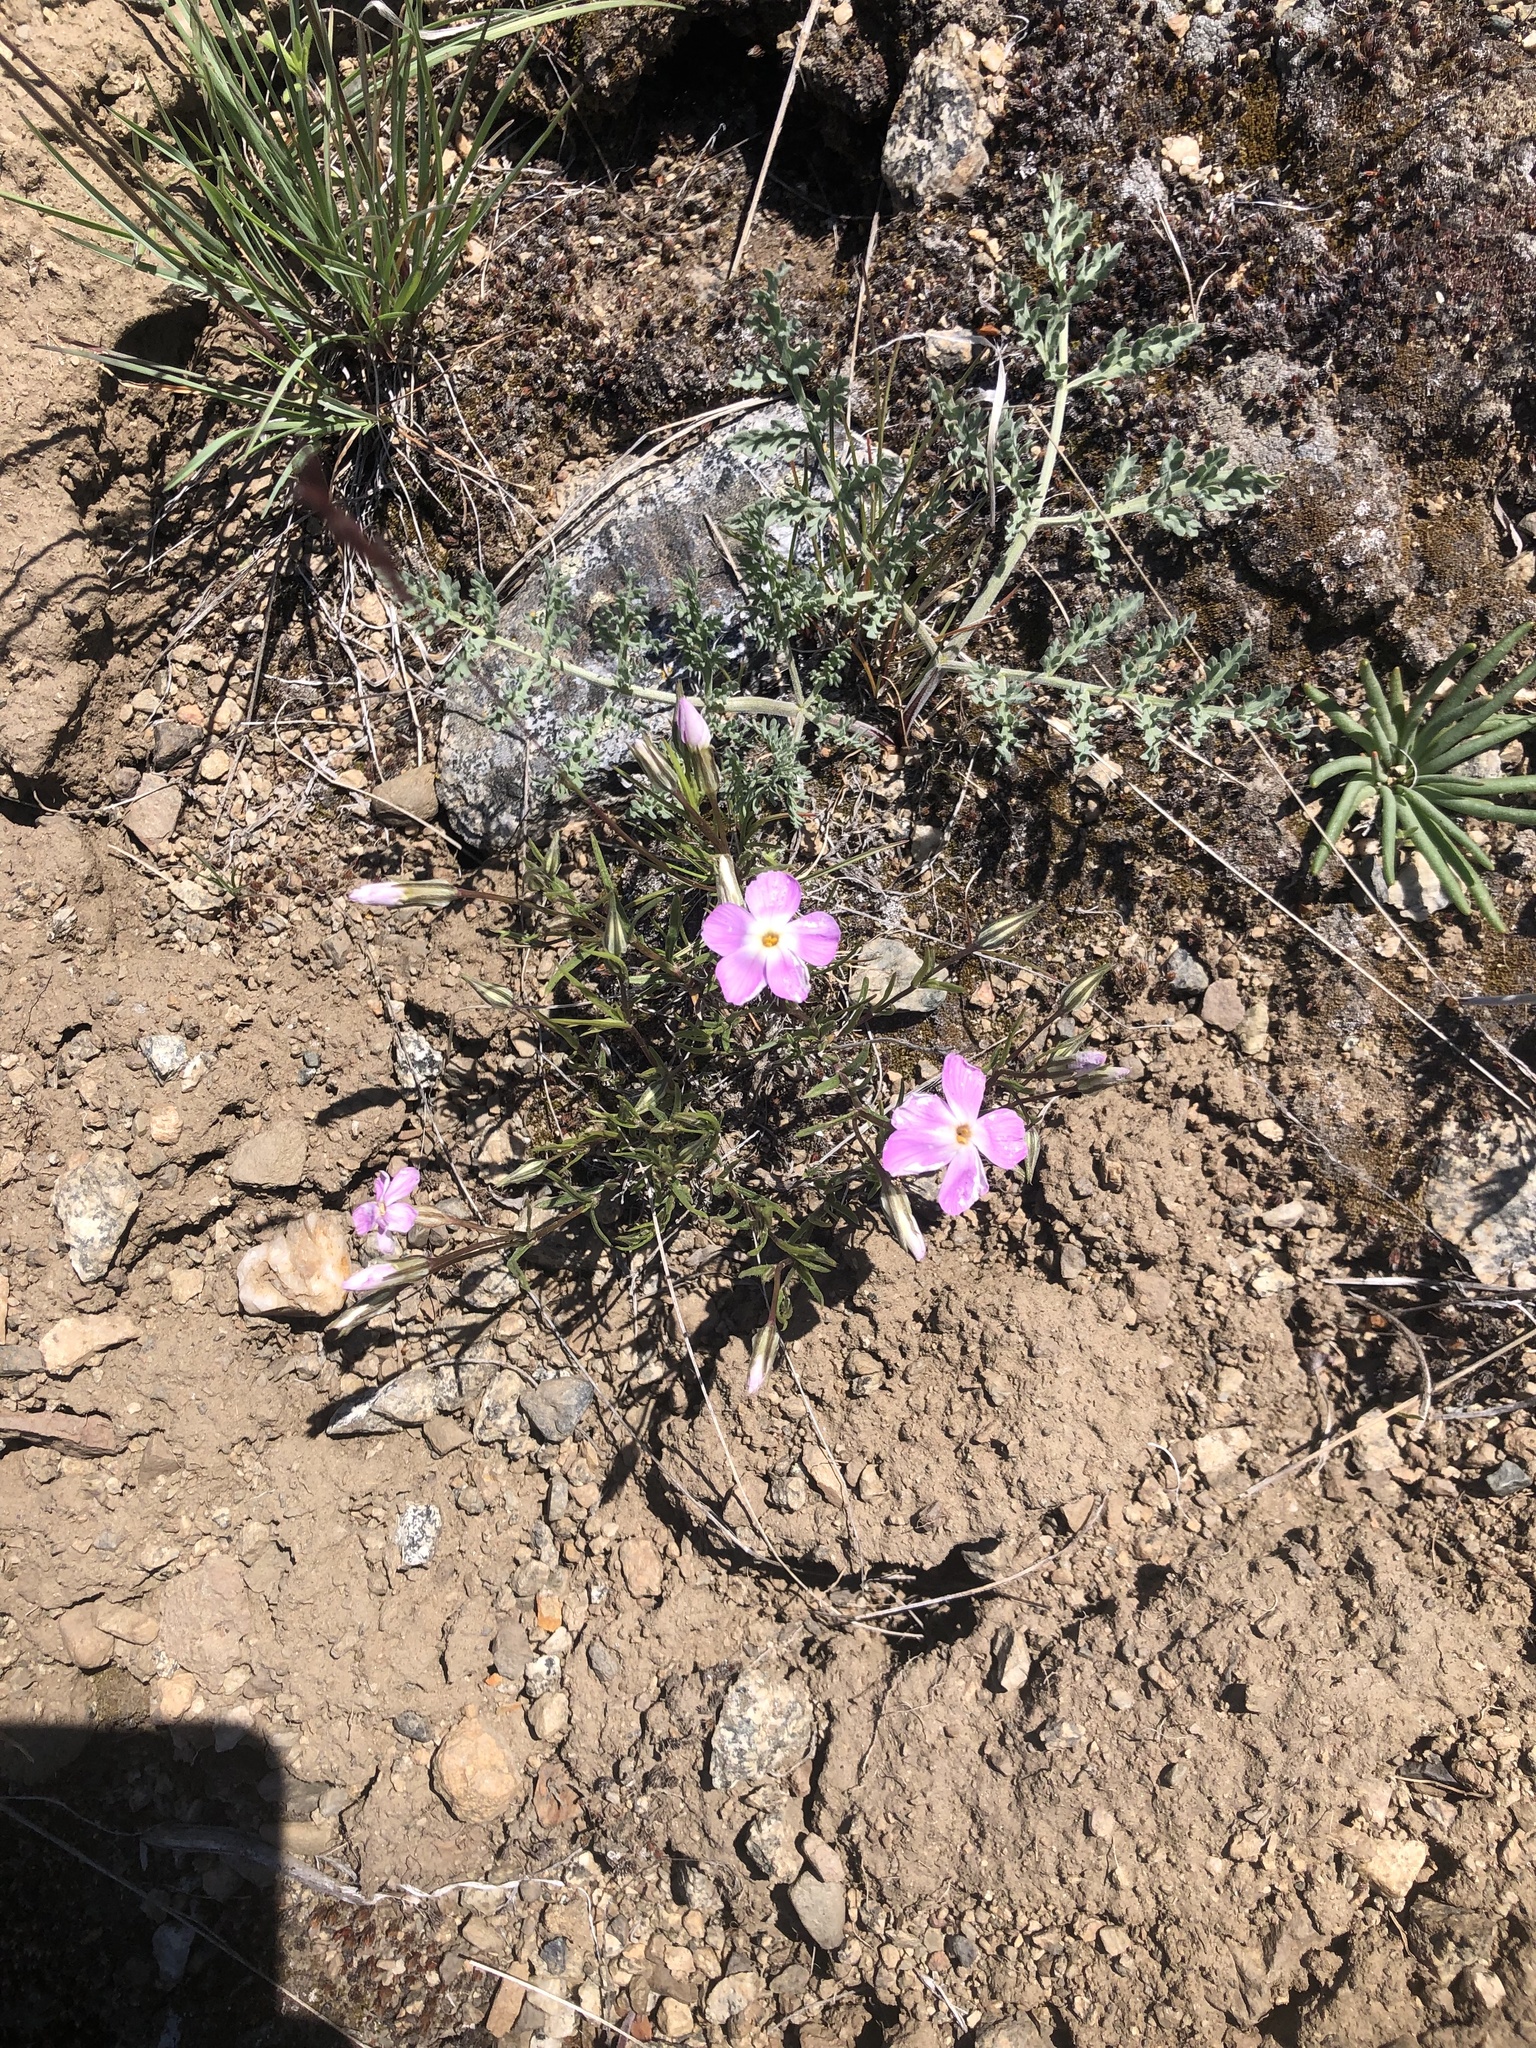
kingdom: Plantae
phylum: Tracheophyta
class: Magnoliopsida
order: Ericales
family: Polemoniaceae
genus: Phlox
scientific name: Phlox longifolia
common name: Longleaf phlox
